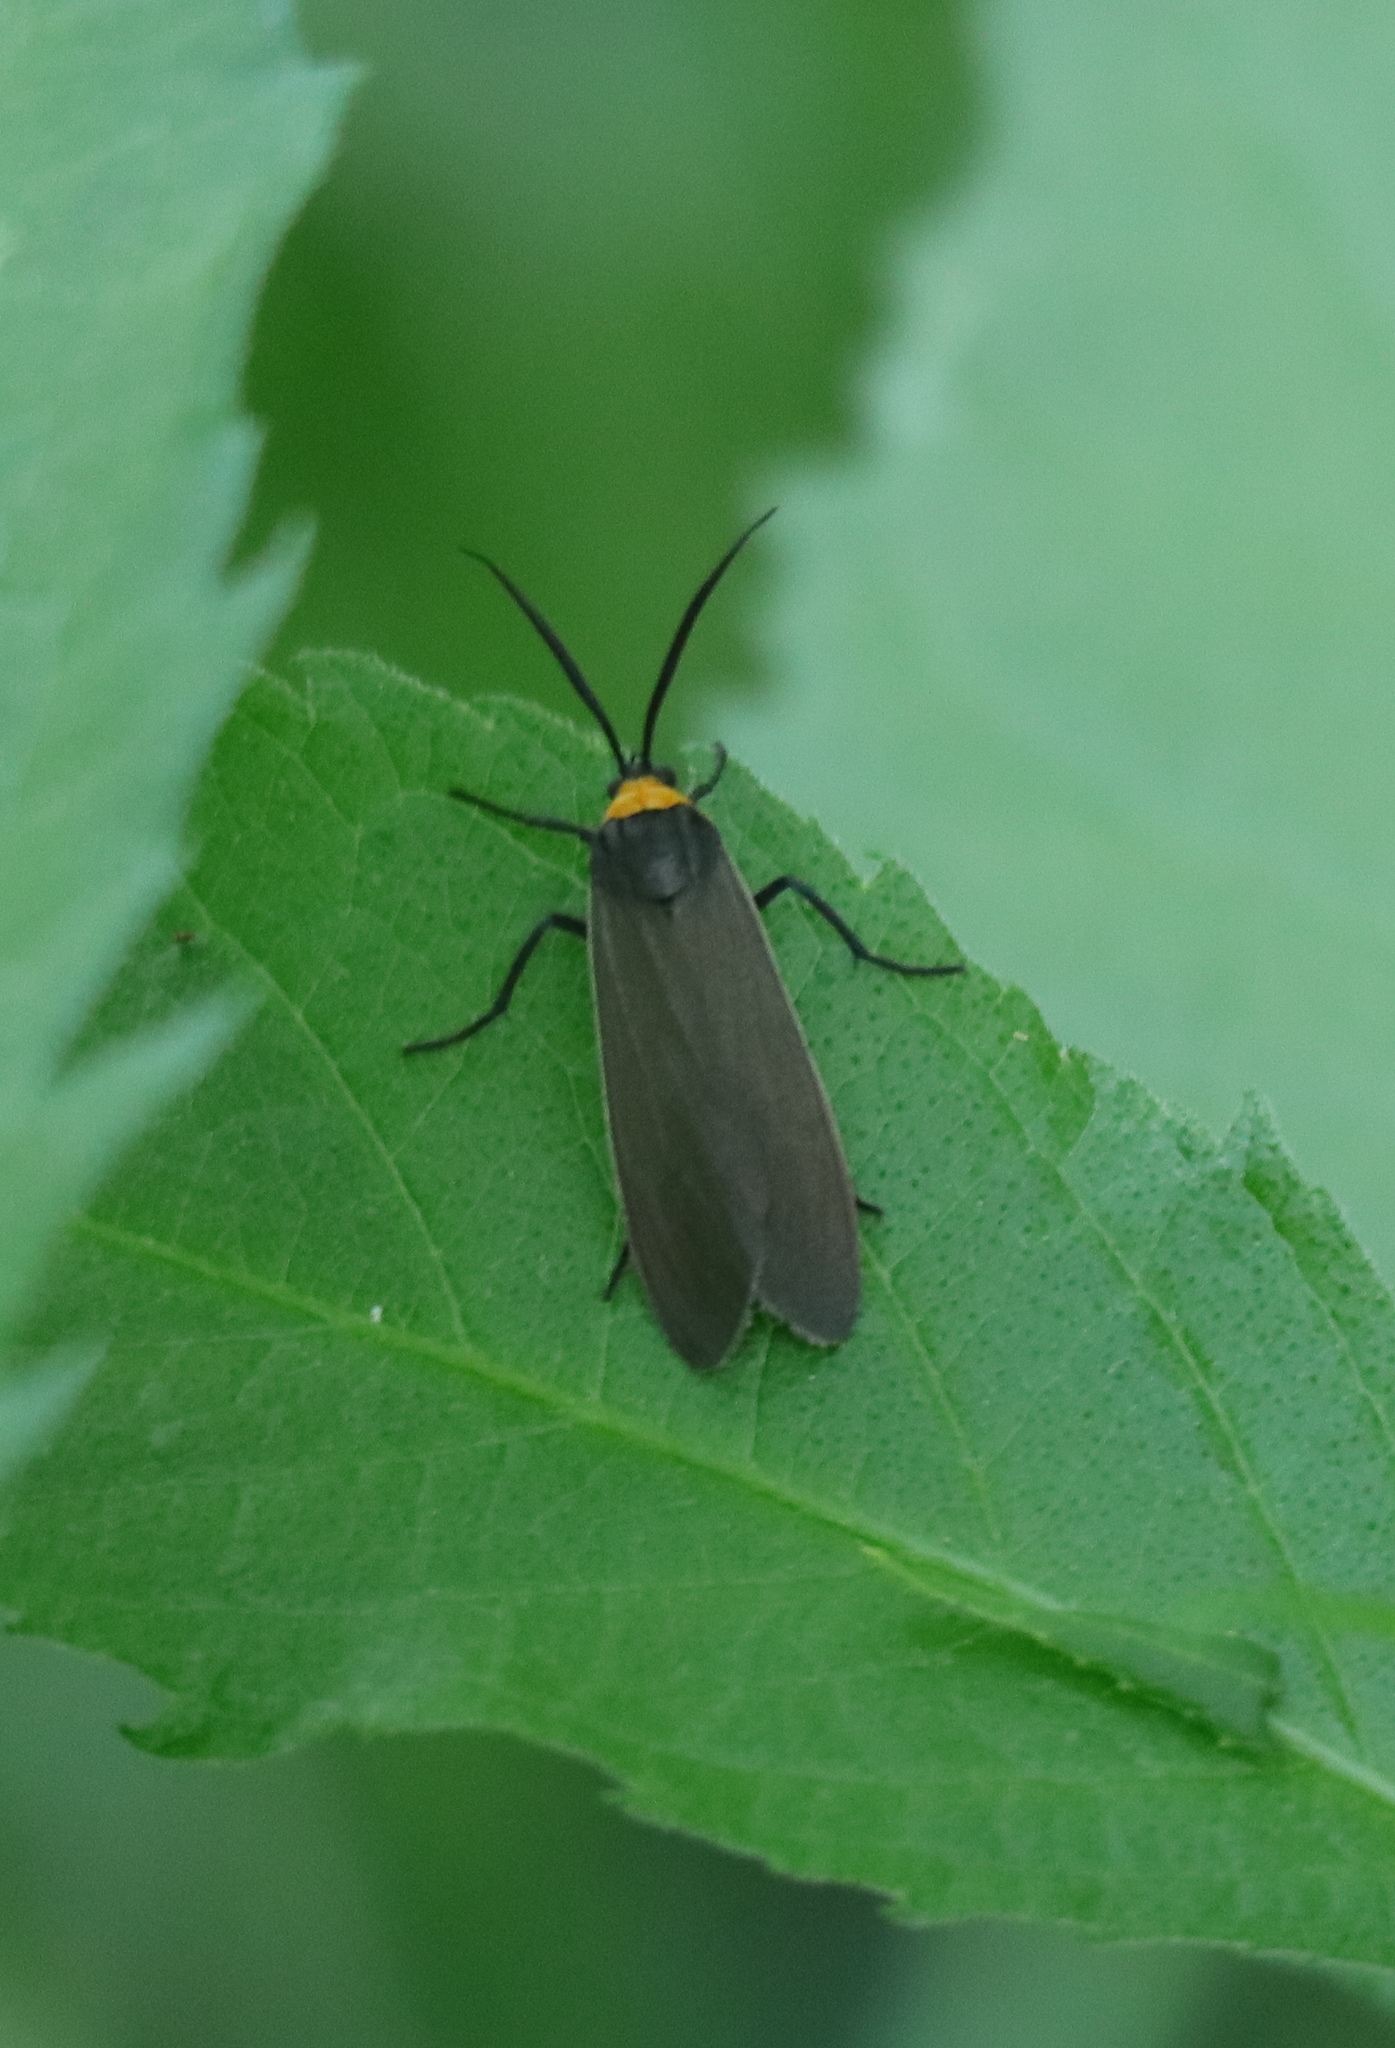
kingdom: Animalia
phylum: Arthropoda
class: Insecta
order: Lepidoptera
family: Erebidae
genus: Cisseps
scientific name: Cisseps fulvicollis
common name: Yellow-collared scape moth
